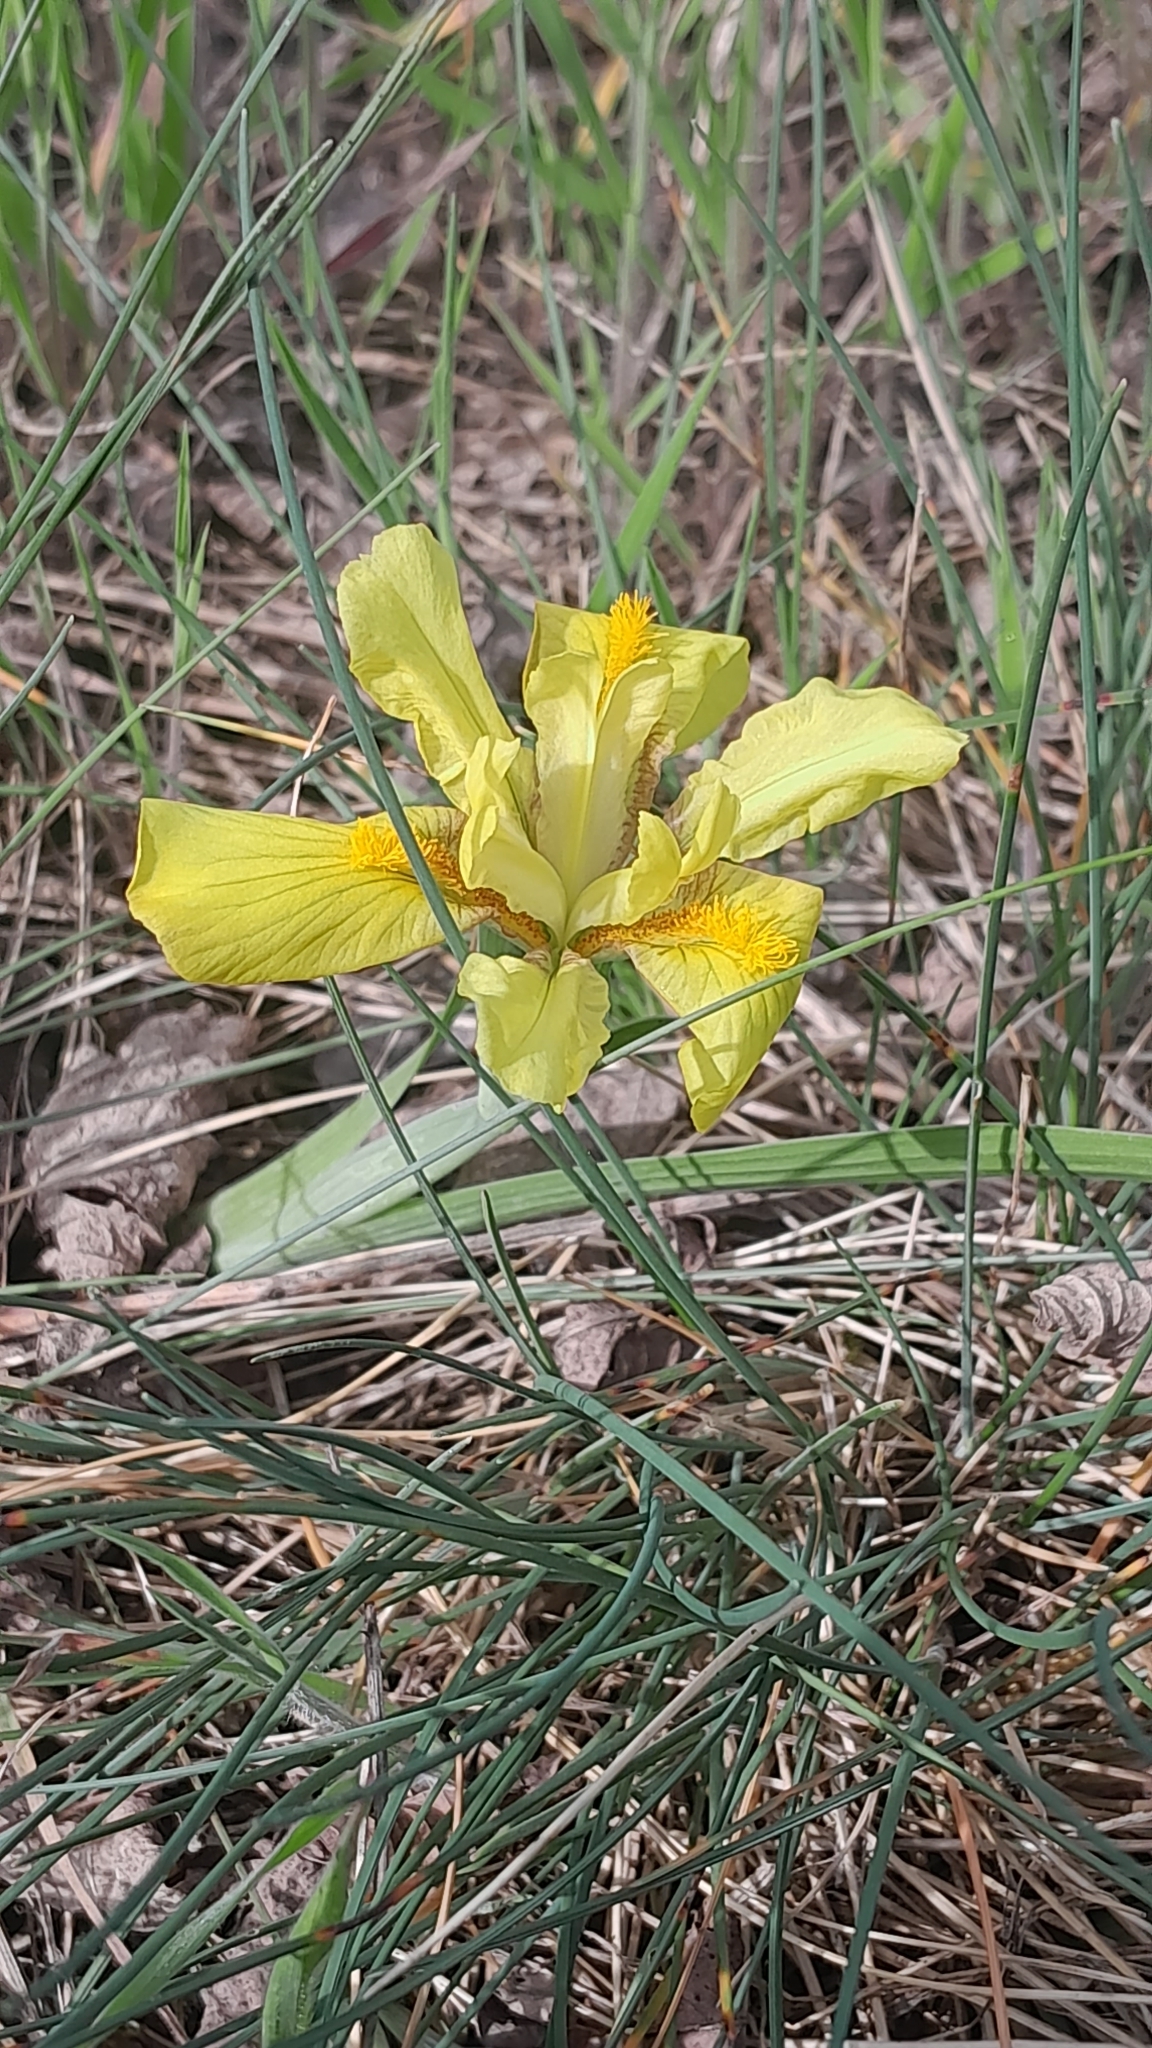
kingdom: Plantae
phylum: Tracheophyta
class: Liliopsida
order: Asparagales
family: Iridaceae
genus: Iris
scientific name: Iris arenaria
